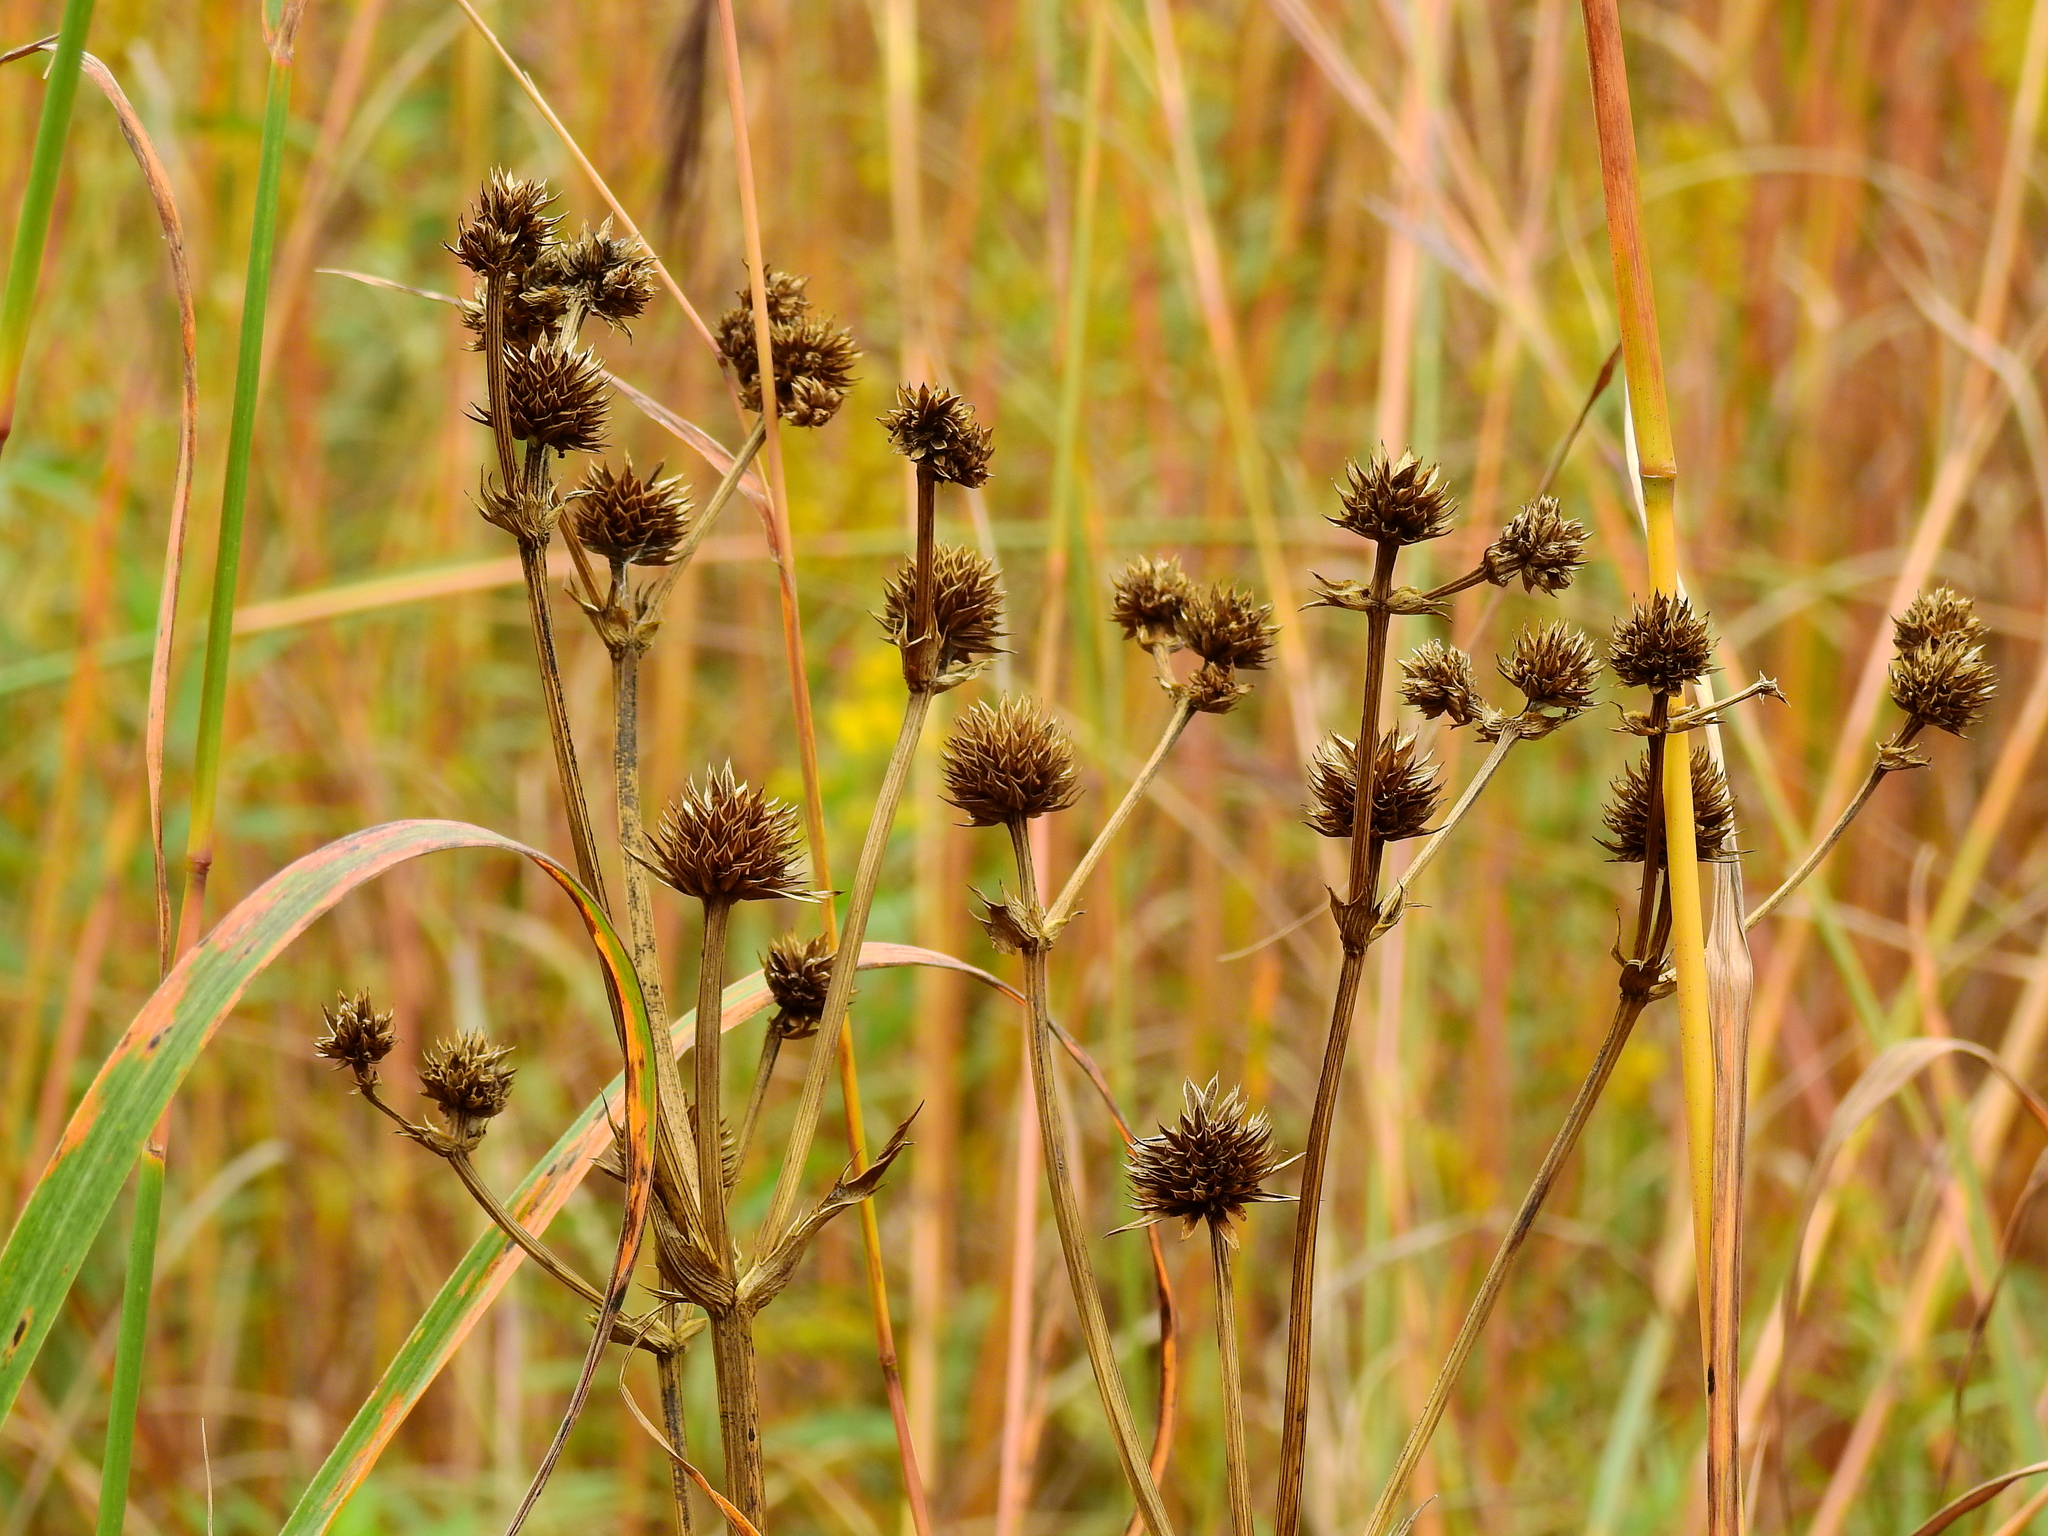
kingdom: Plantae
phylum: Tracheophyta
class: Magnoliopsida
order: Apiales
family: Apiaceae
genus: Eryngium
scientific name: Eryngium yuccifolium
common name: Button eryngo
